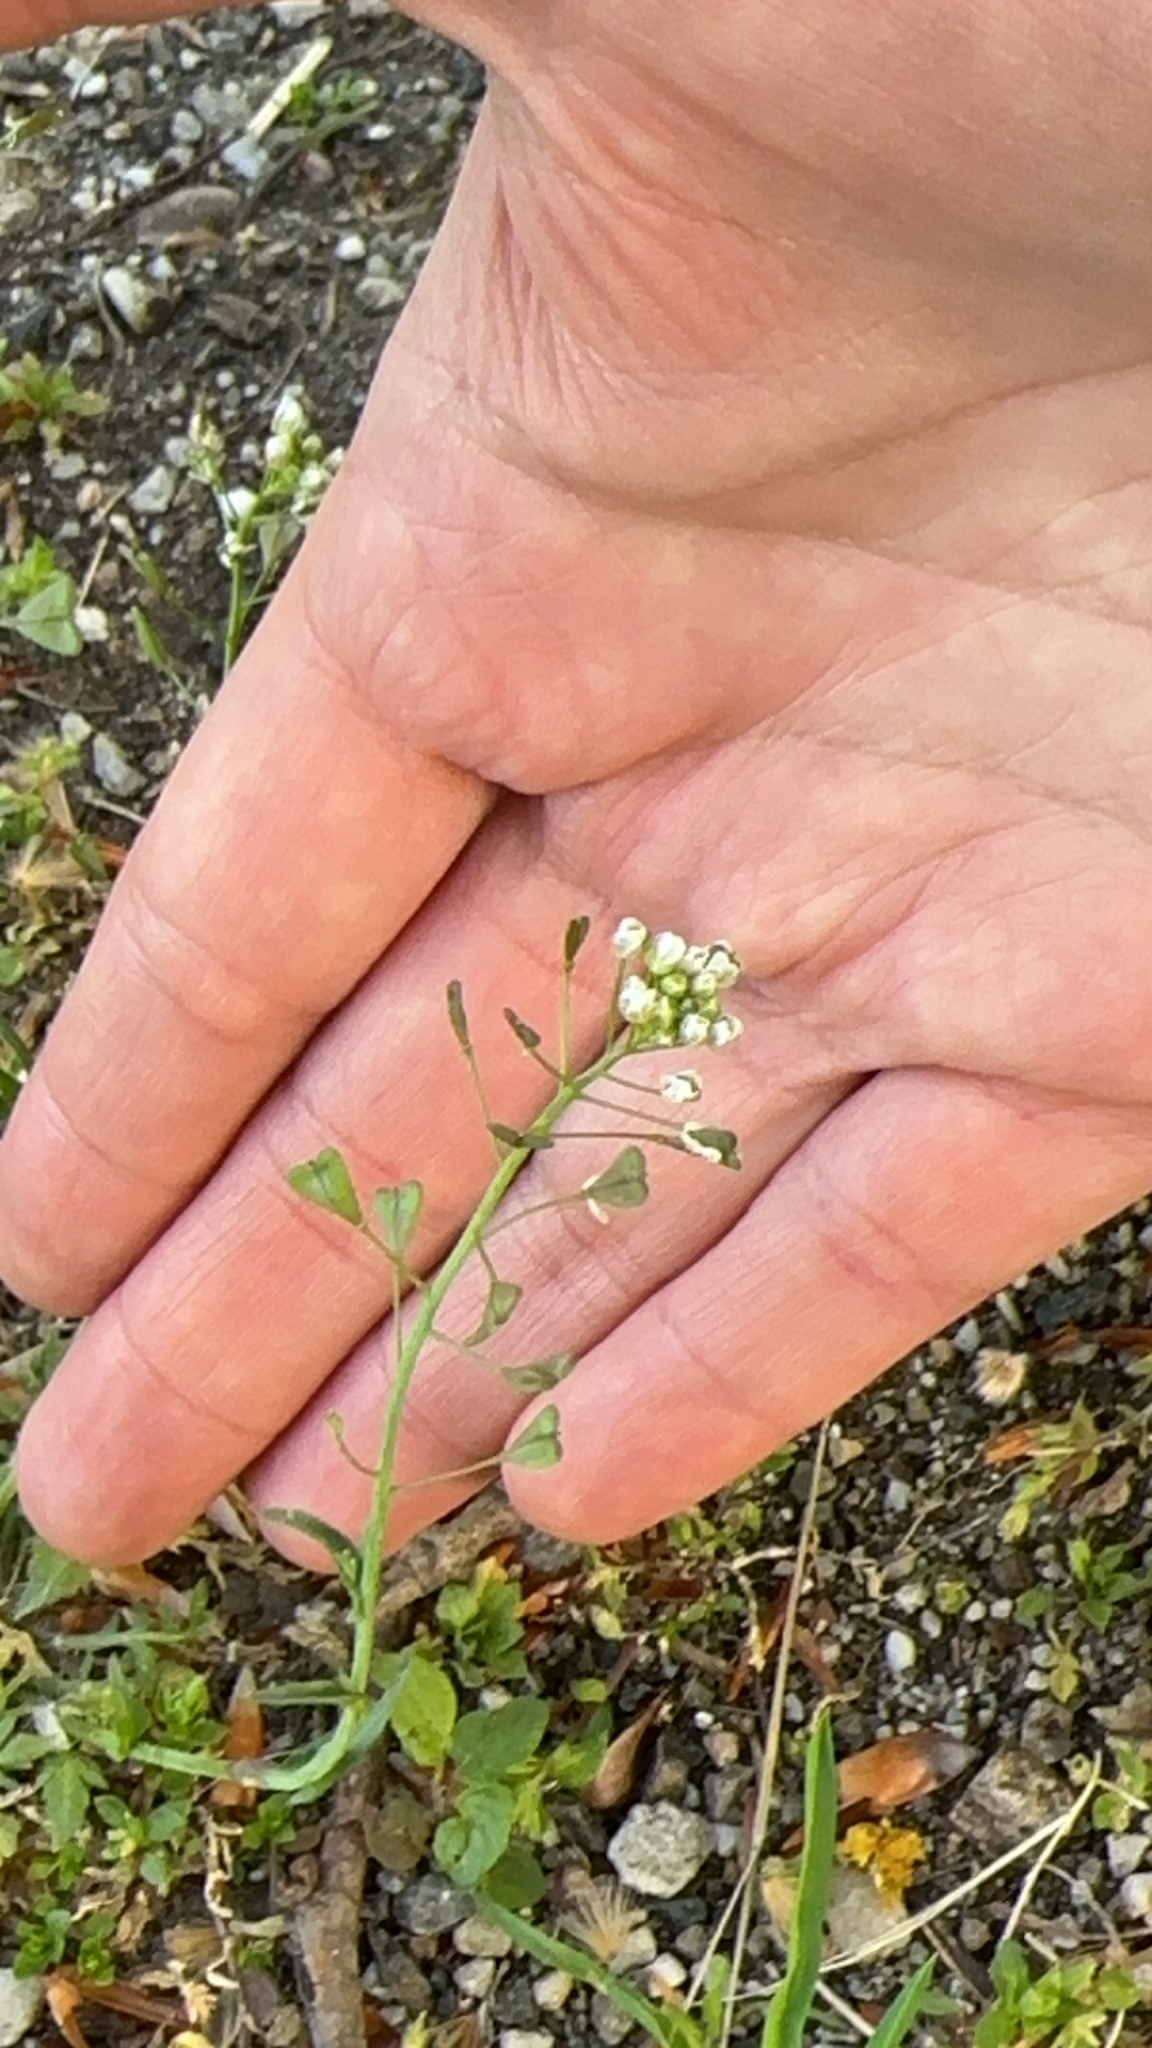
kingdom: Plantae
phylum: Tracheophyta
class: Magnoliopsida
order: Brassicales
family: Brassicaceae
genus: Capsella
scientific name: Capsella bursa-pastoris
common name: Shepherd's purse
